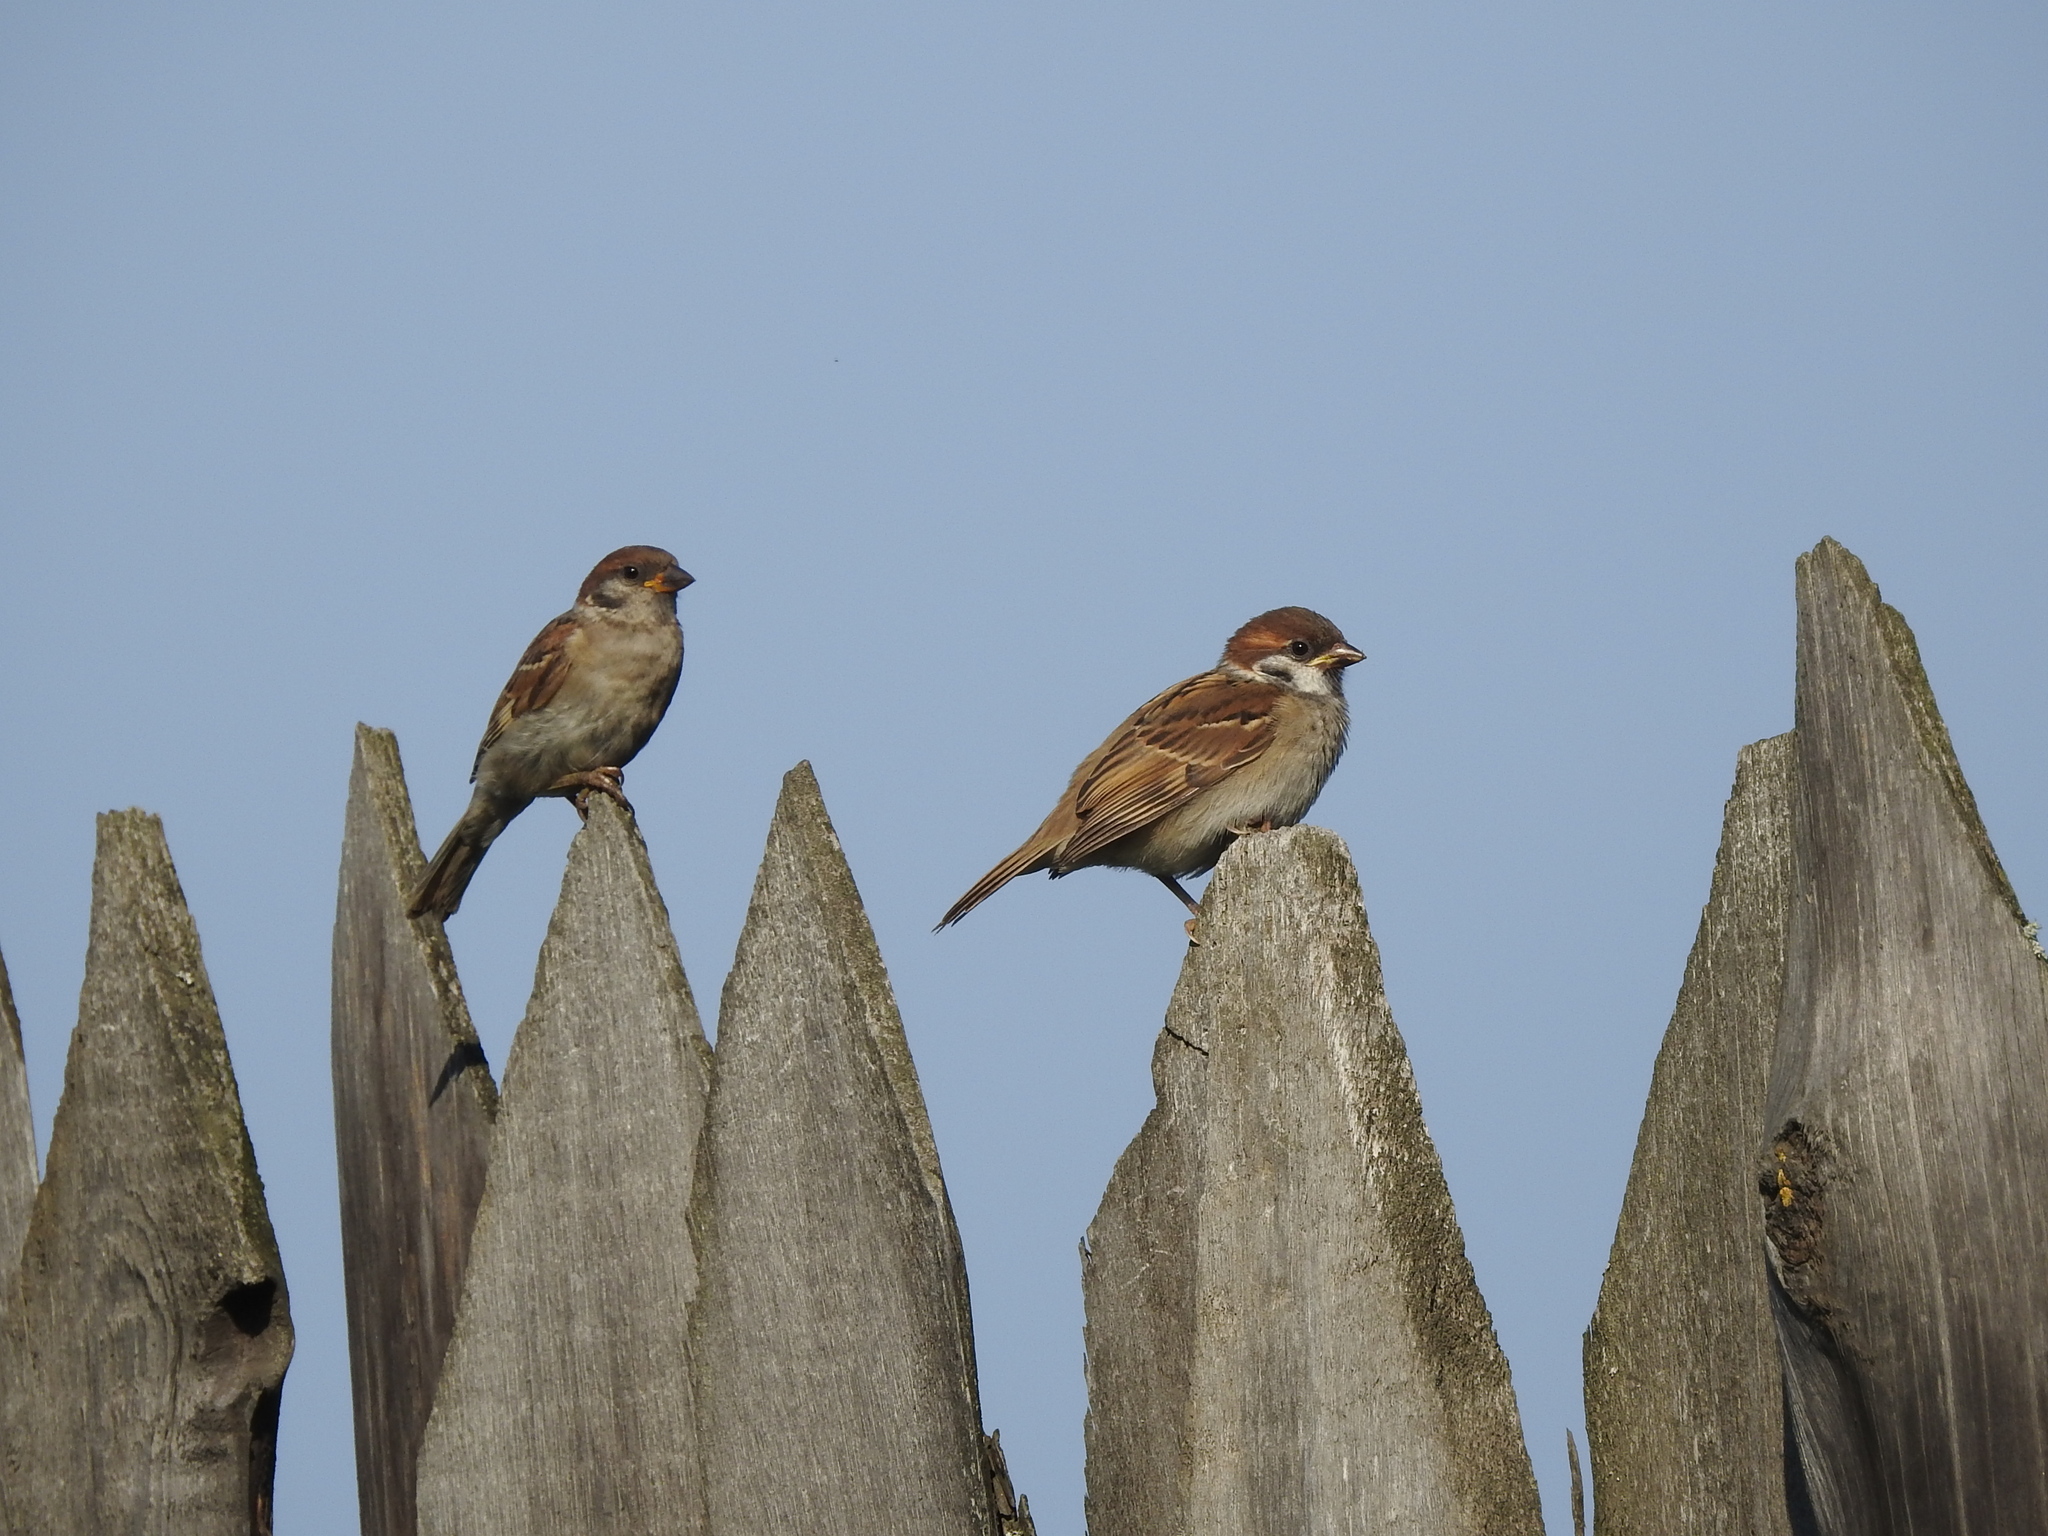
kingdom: Animalia
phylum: Chordata
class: Aves
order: Passeriformes
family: Passeridae
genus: Passer
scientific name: Passer montanus
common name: Eurasian tree sparrow
